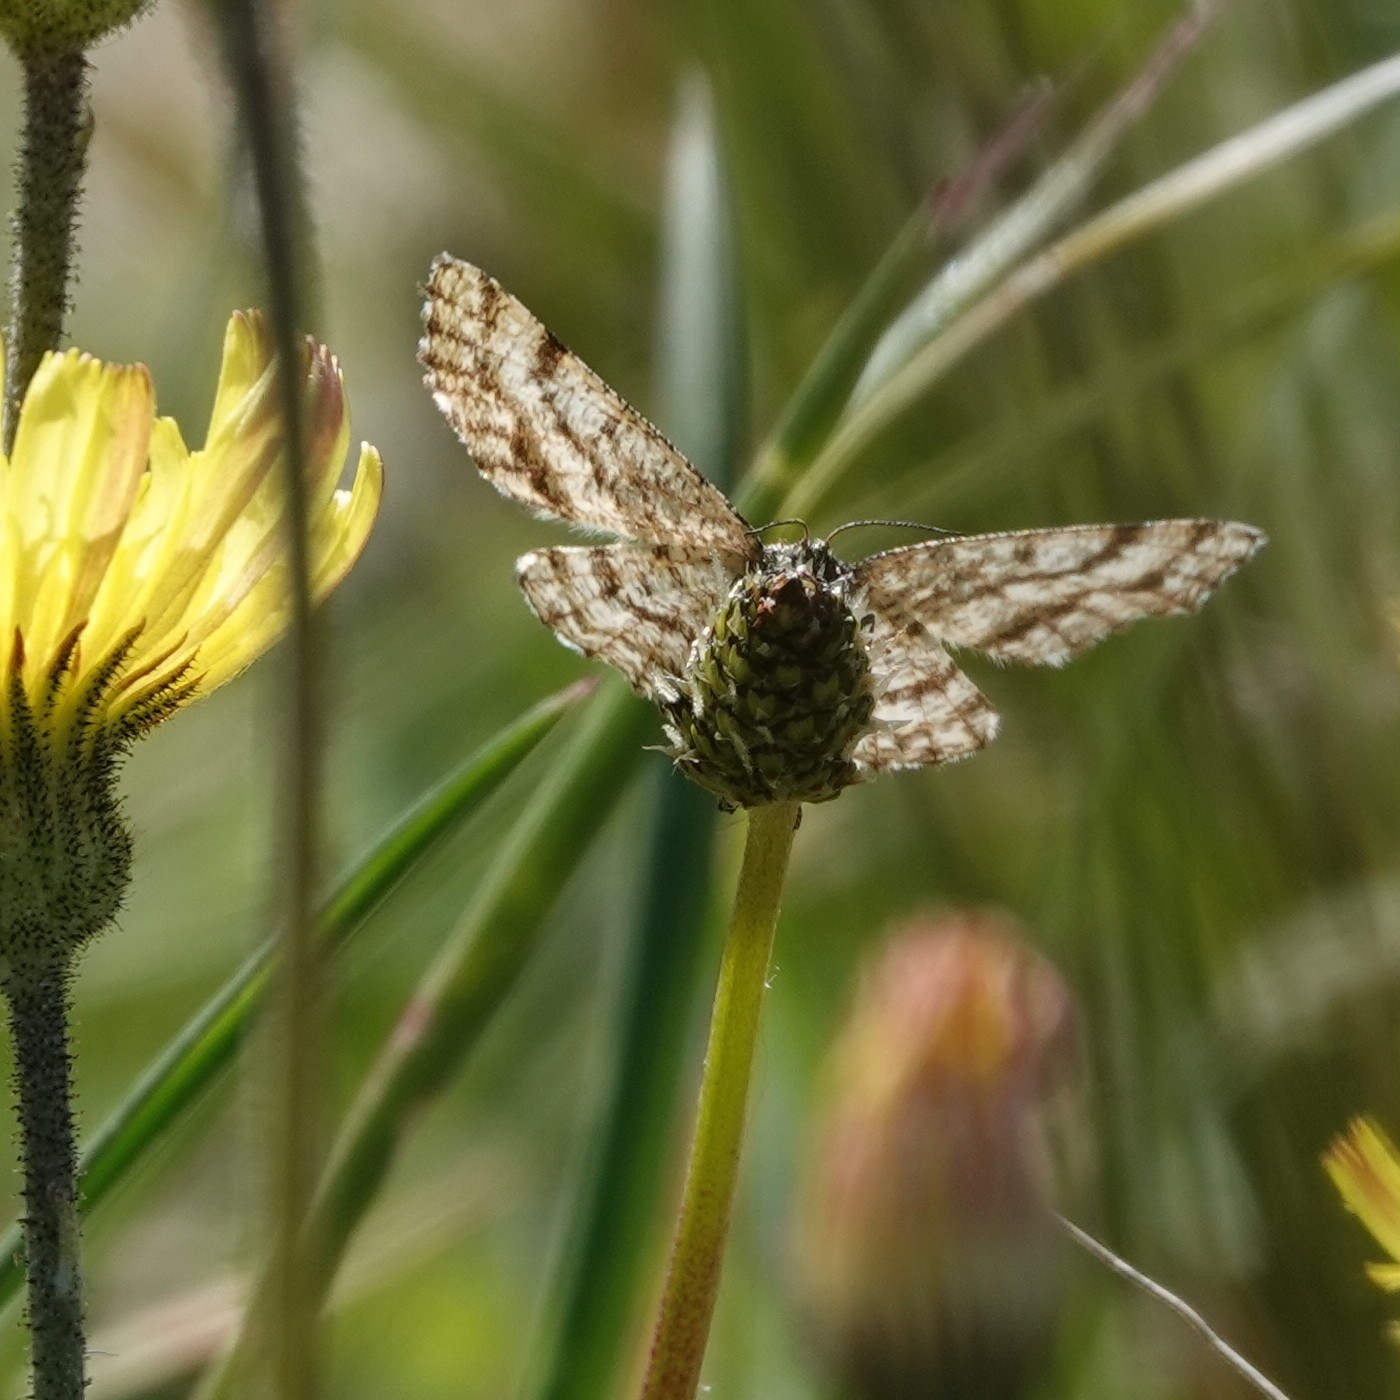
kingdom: Animalia
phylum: Arthropoda
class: Insecta
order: Lepidoptera
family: Geometridae
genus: Ematurga
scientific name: Ematurga atomaria
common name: Common heath
